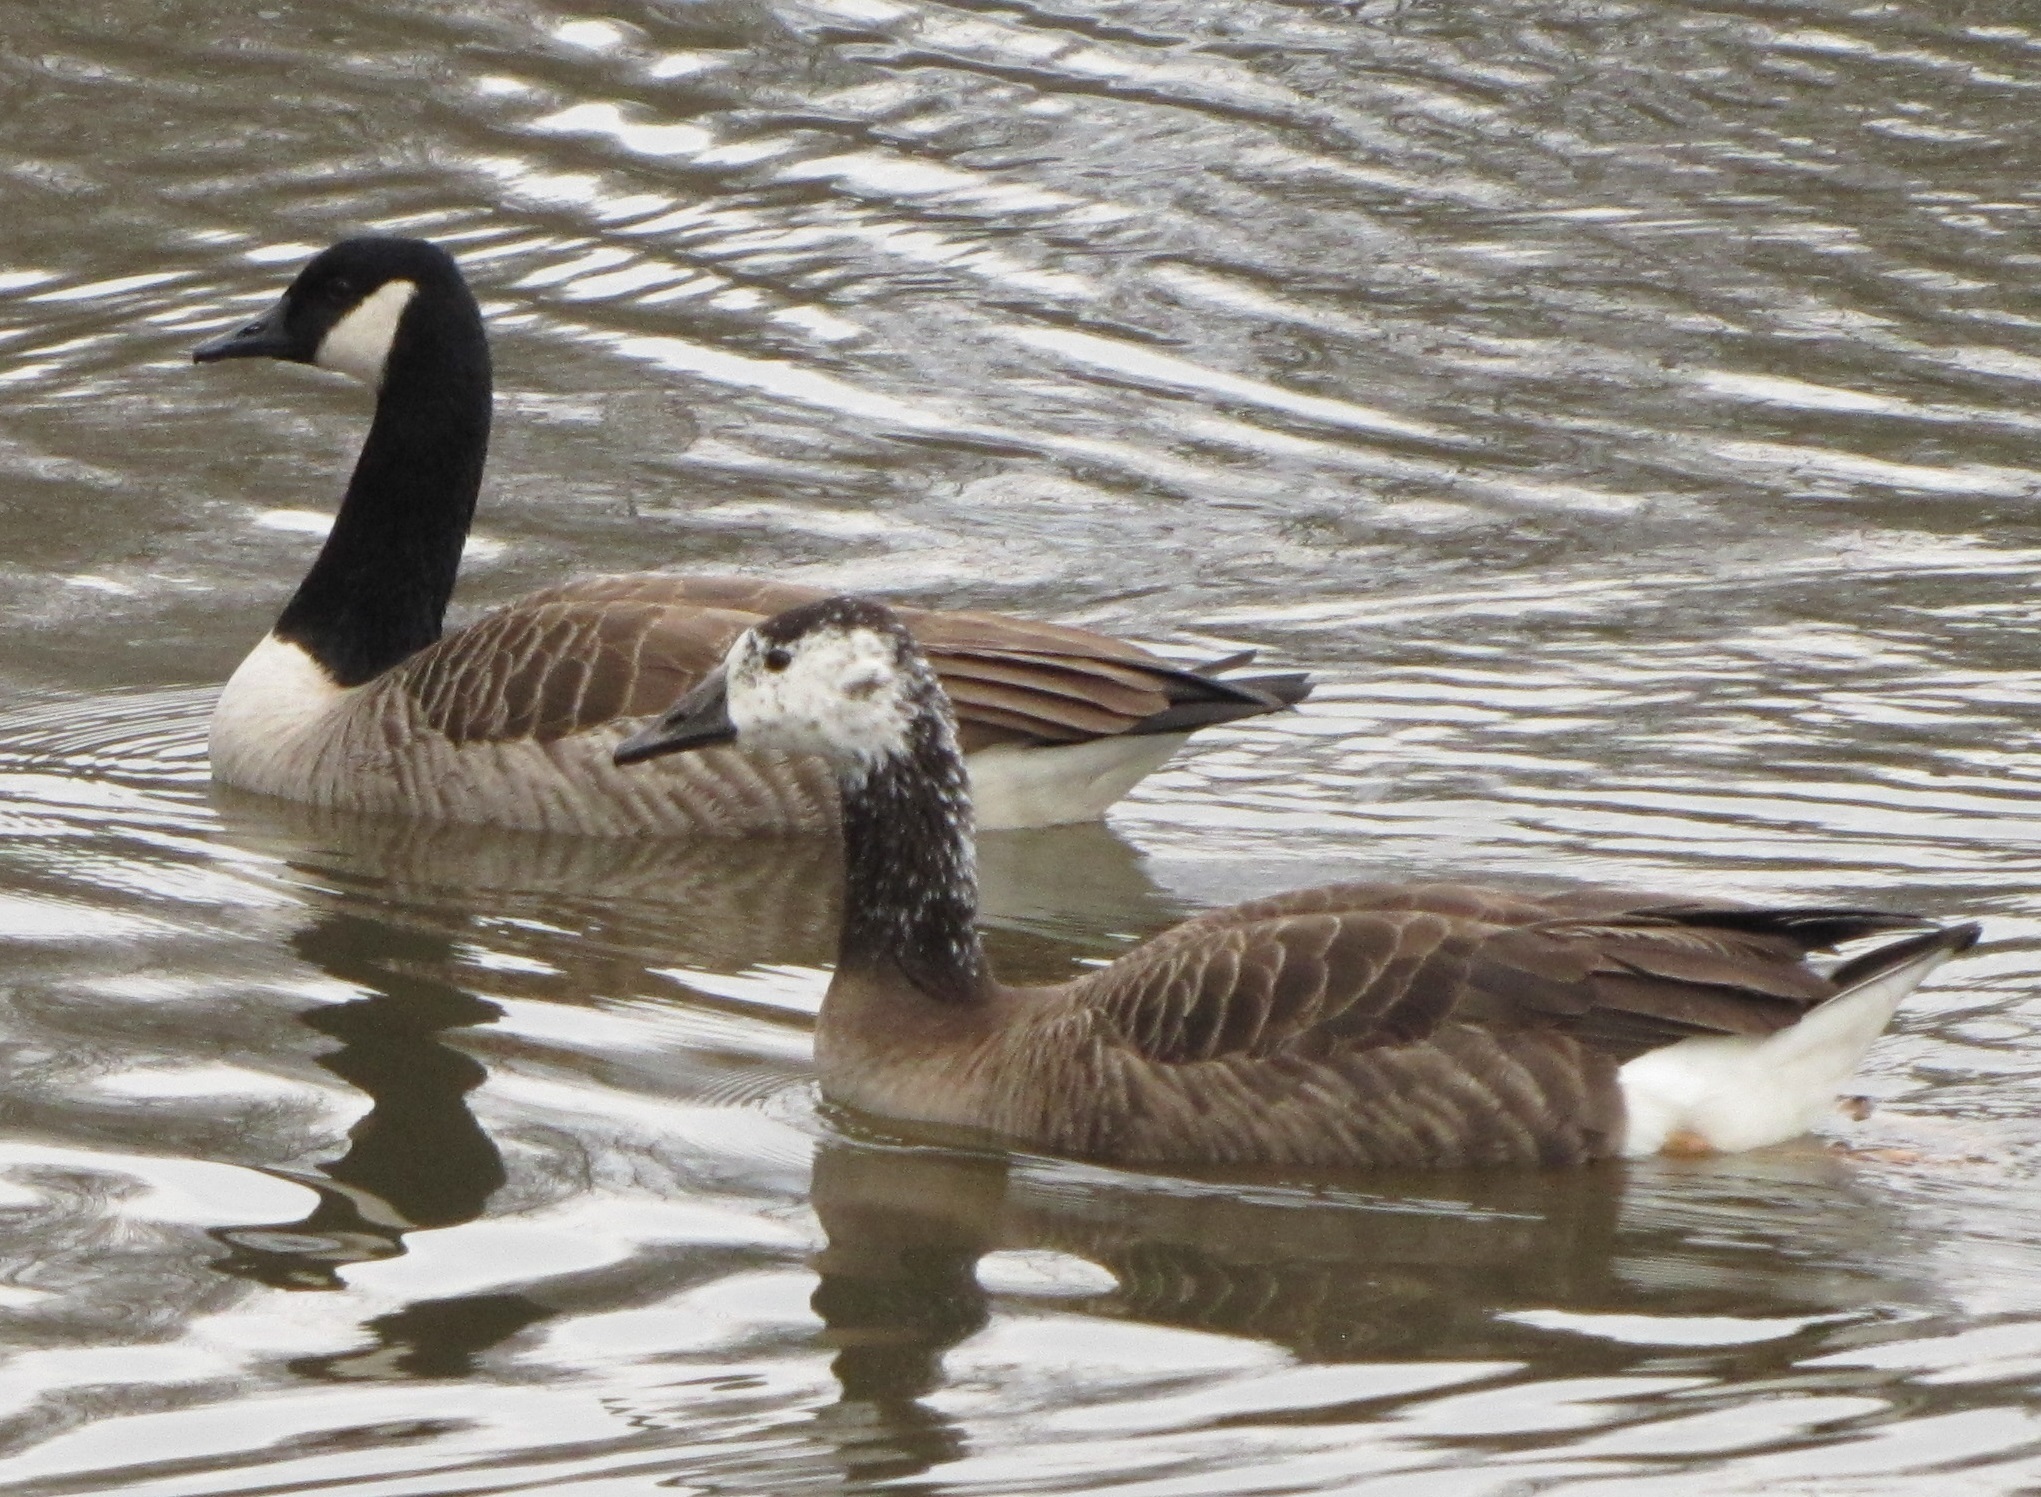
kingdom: Animalia
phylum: Chordata
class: Aves
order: Anseriformes
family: Anatidae
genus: Branta
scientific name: Branta canadensis
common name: Canada goose
